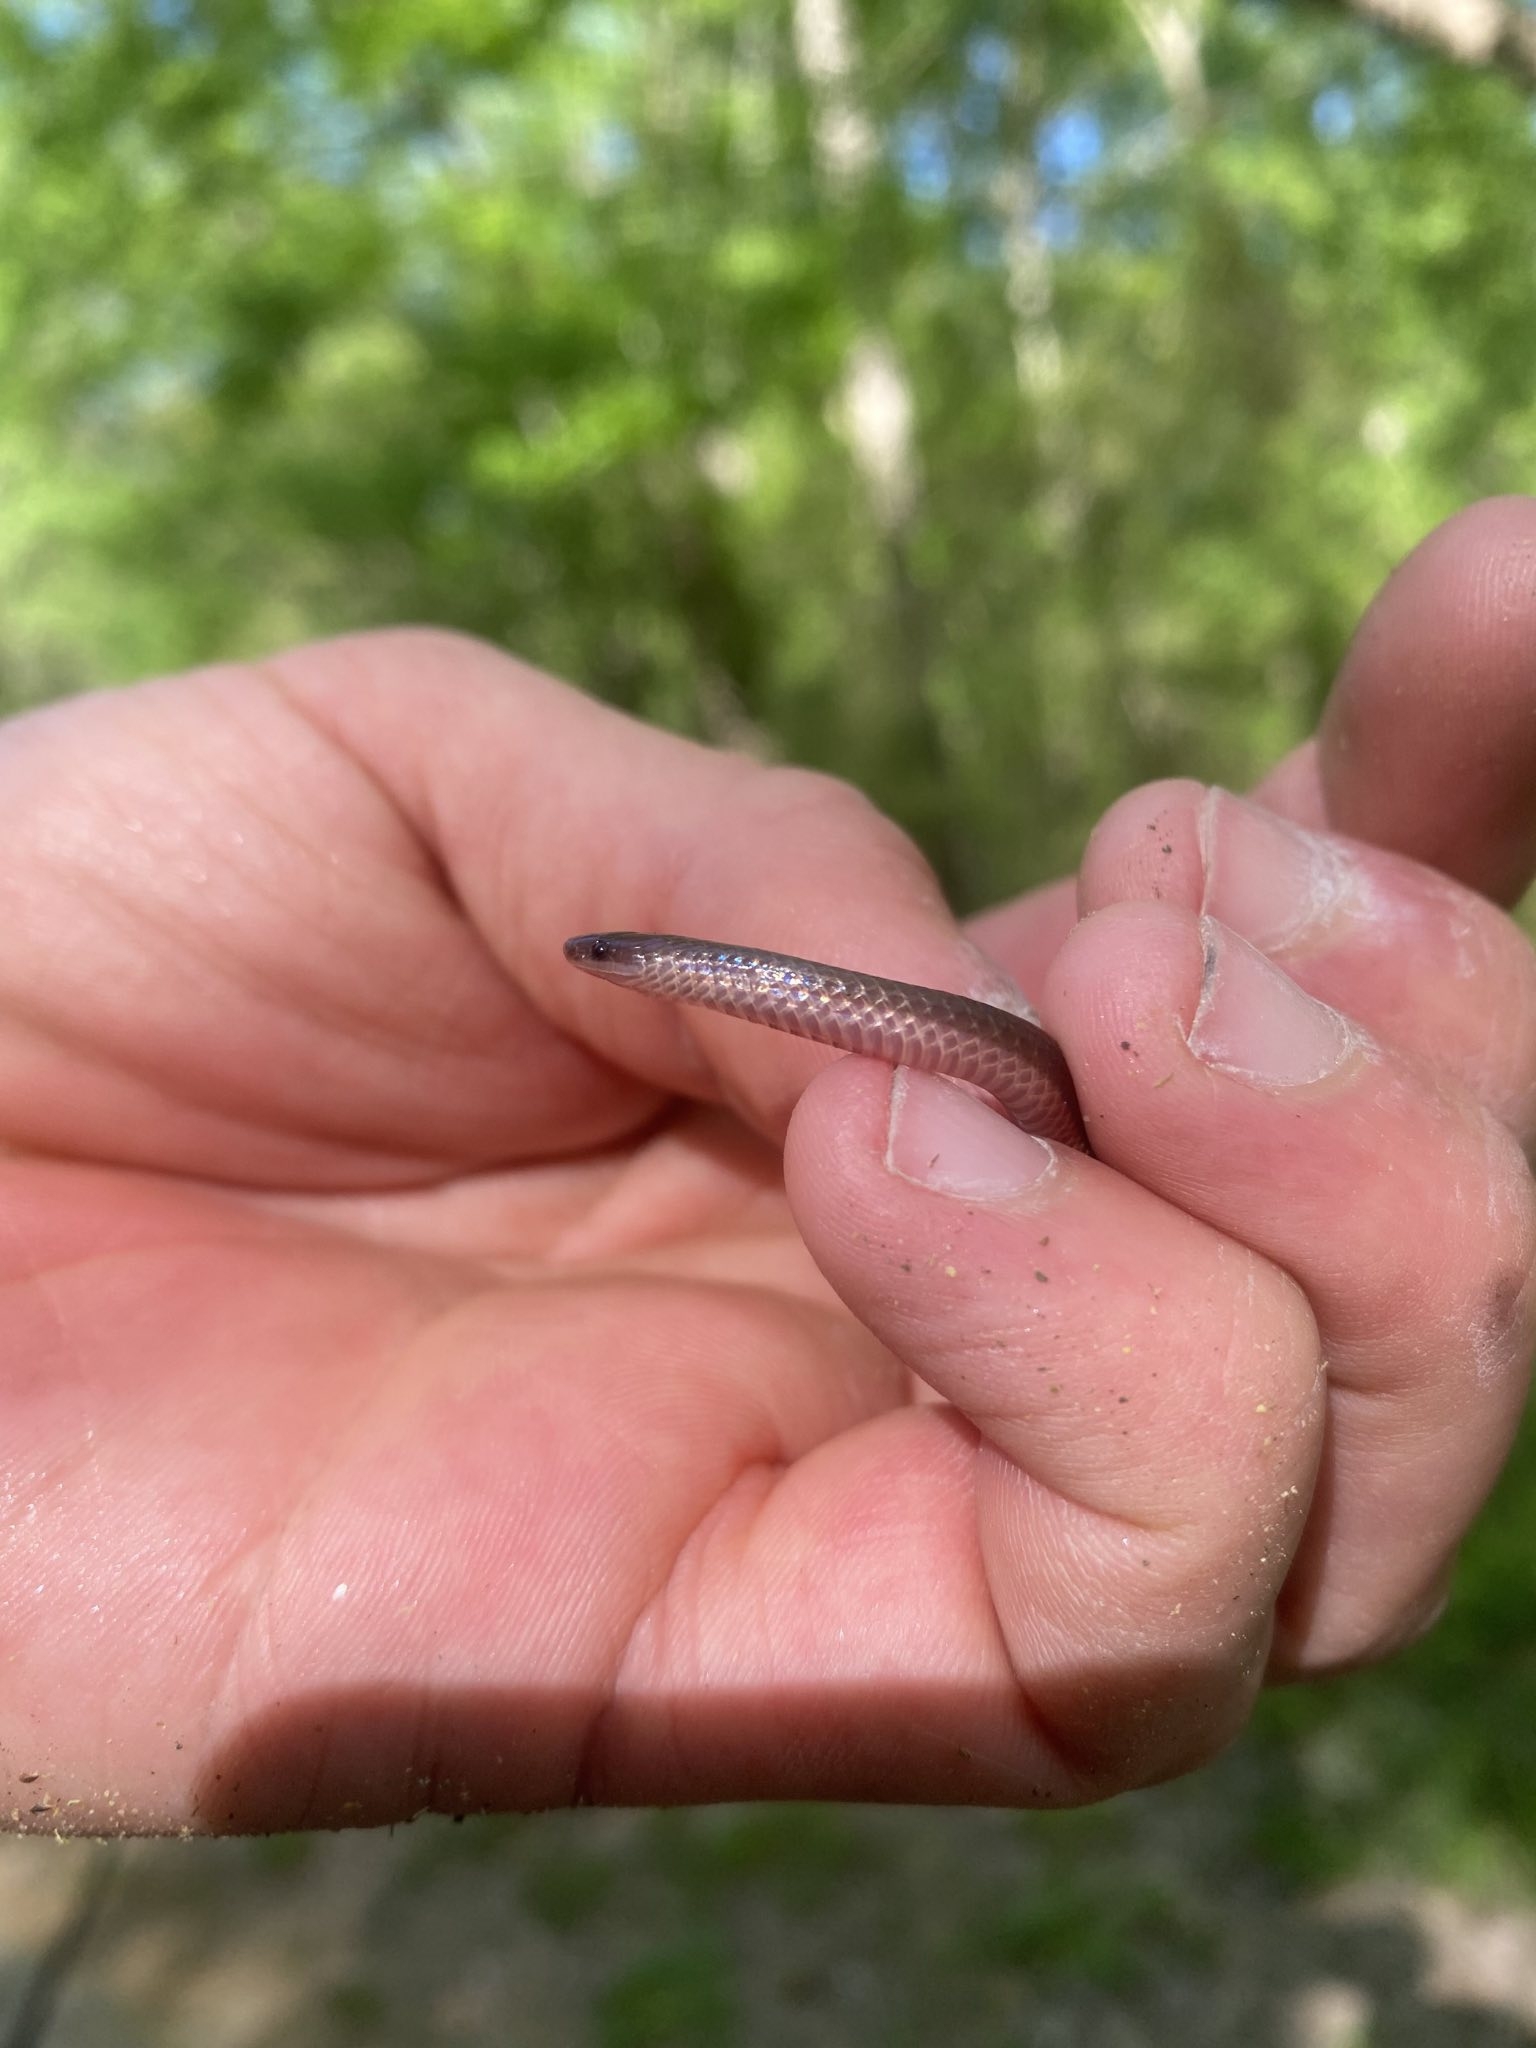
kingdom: Animalia
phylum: Chordata
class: Squamata
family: Colubridae
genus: Carphophis
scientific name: Carphophis amoenus
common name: Eastern worm snake
